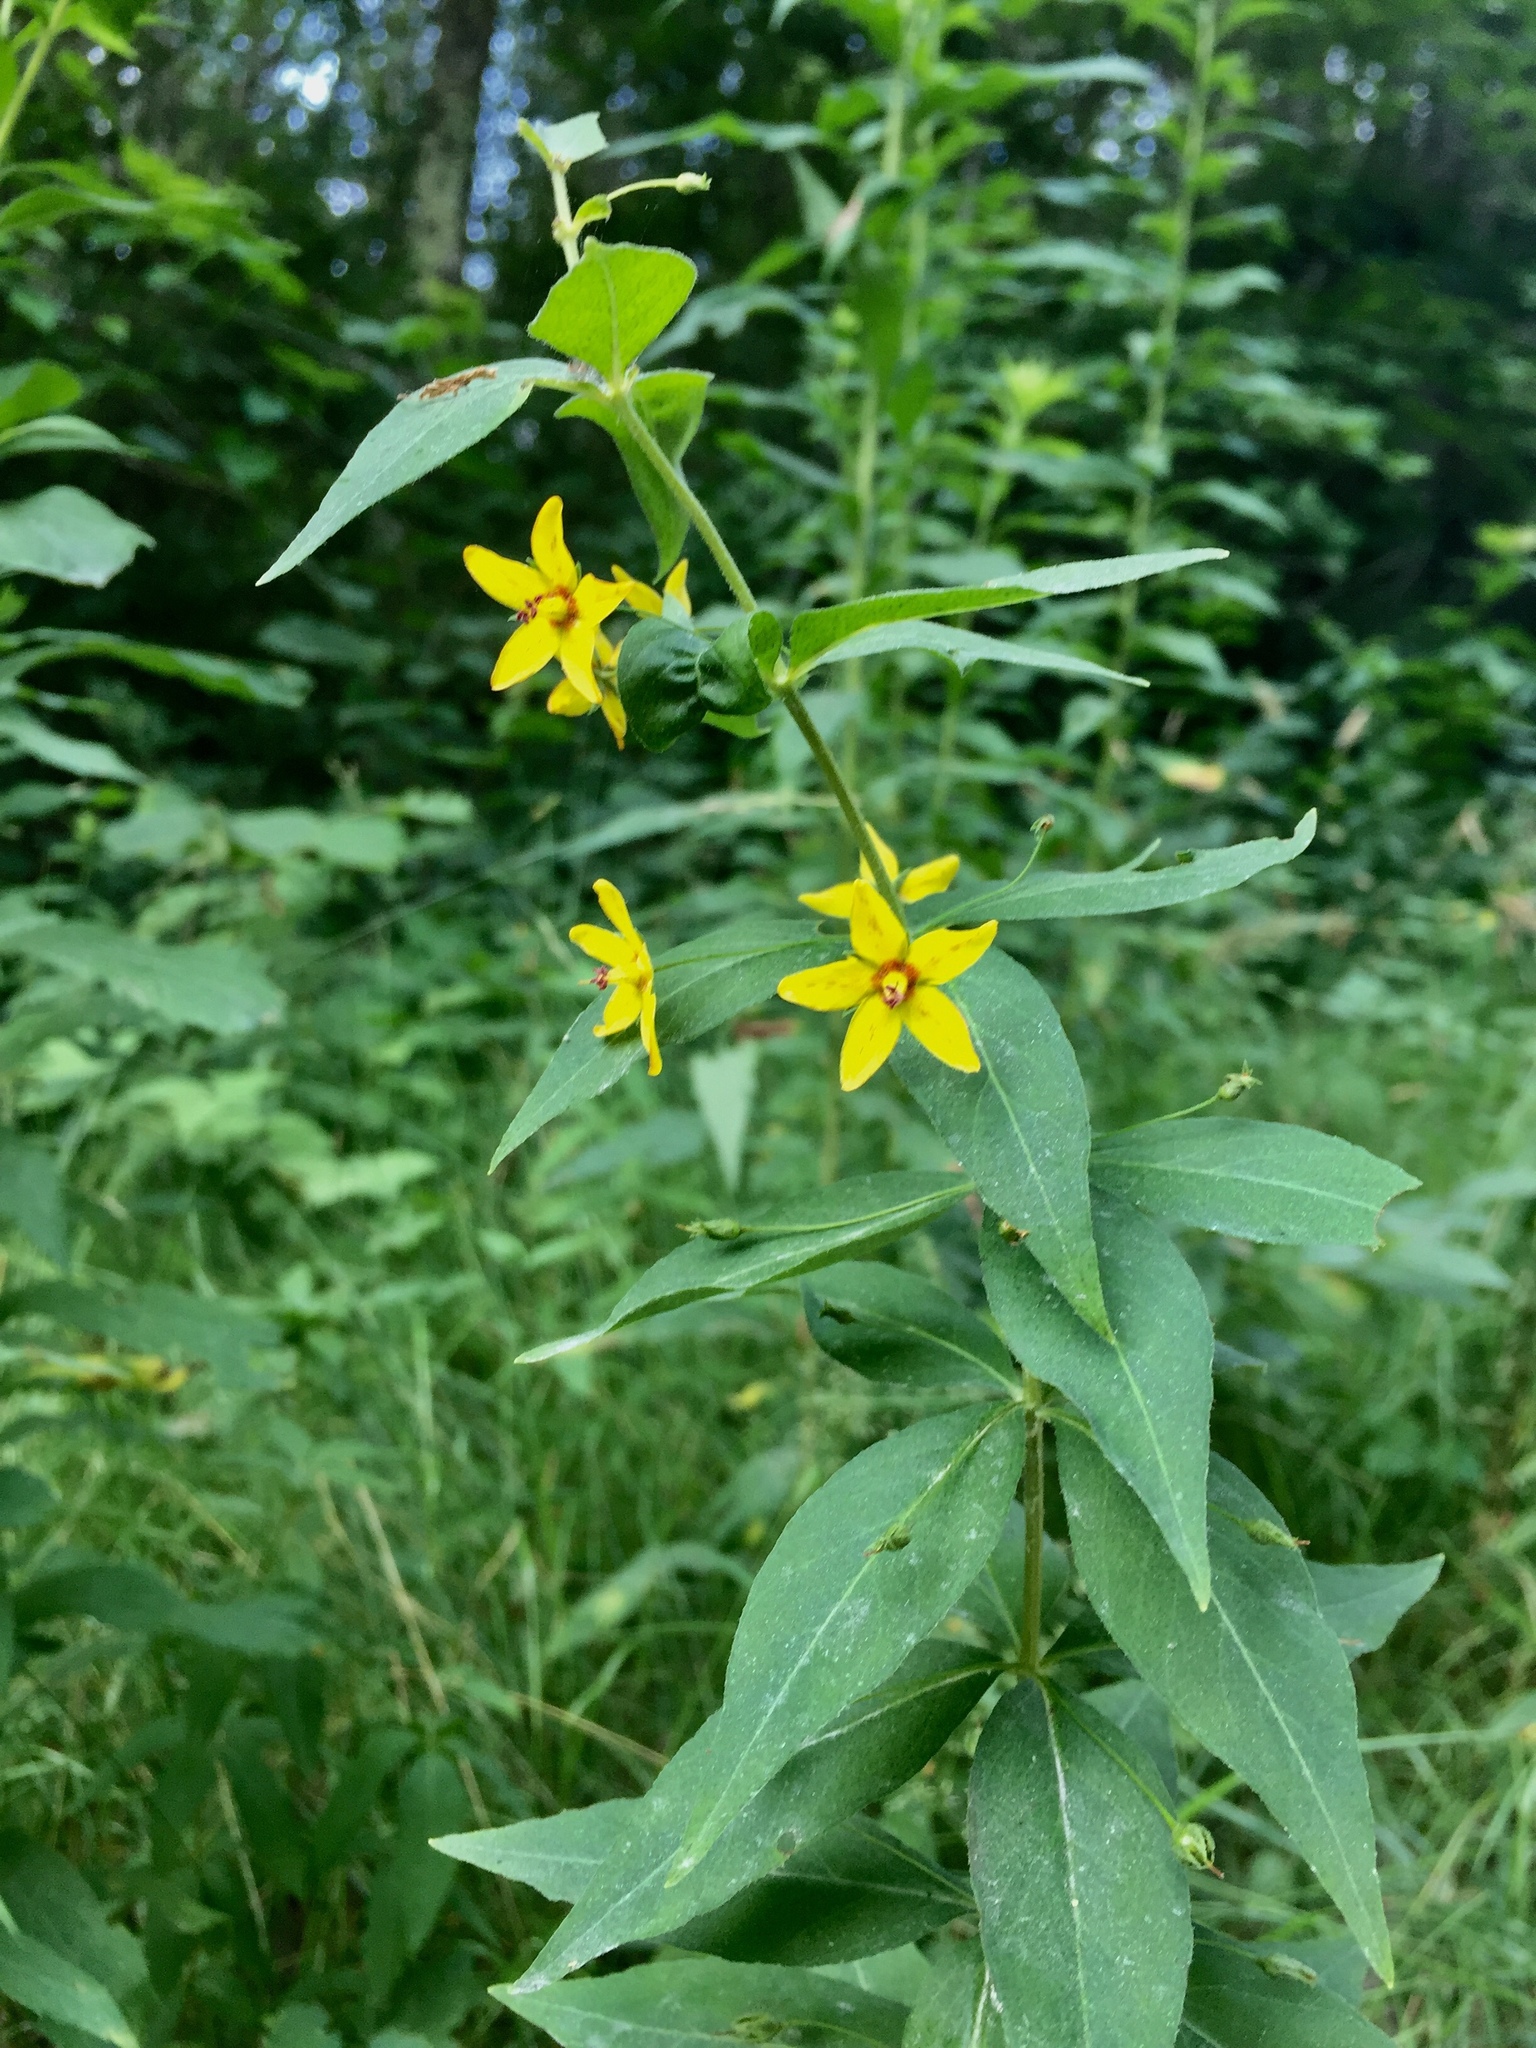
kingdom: Plantae
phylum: Tracheophyta
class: Magnoliopsida
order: Ericales
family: Primulaceae
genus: Lysimachia
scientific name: Lysimachia quadrifolia
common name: Whorled loosestrife
